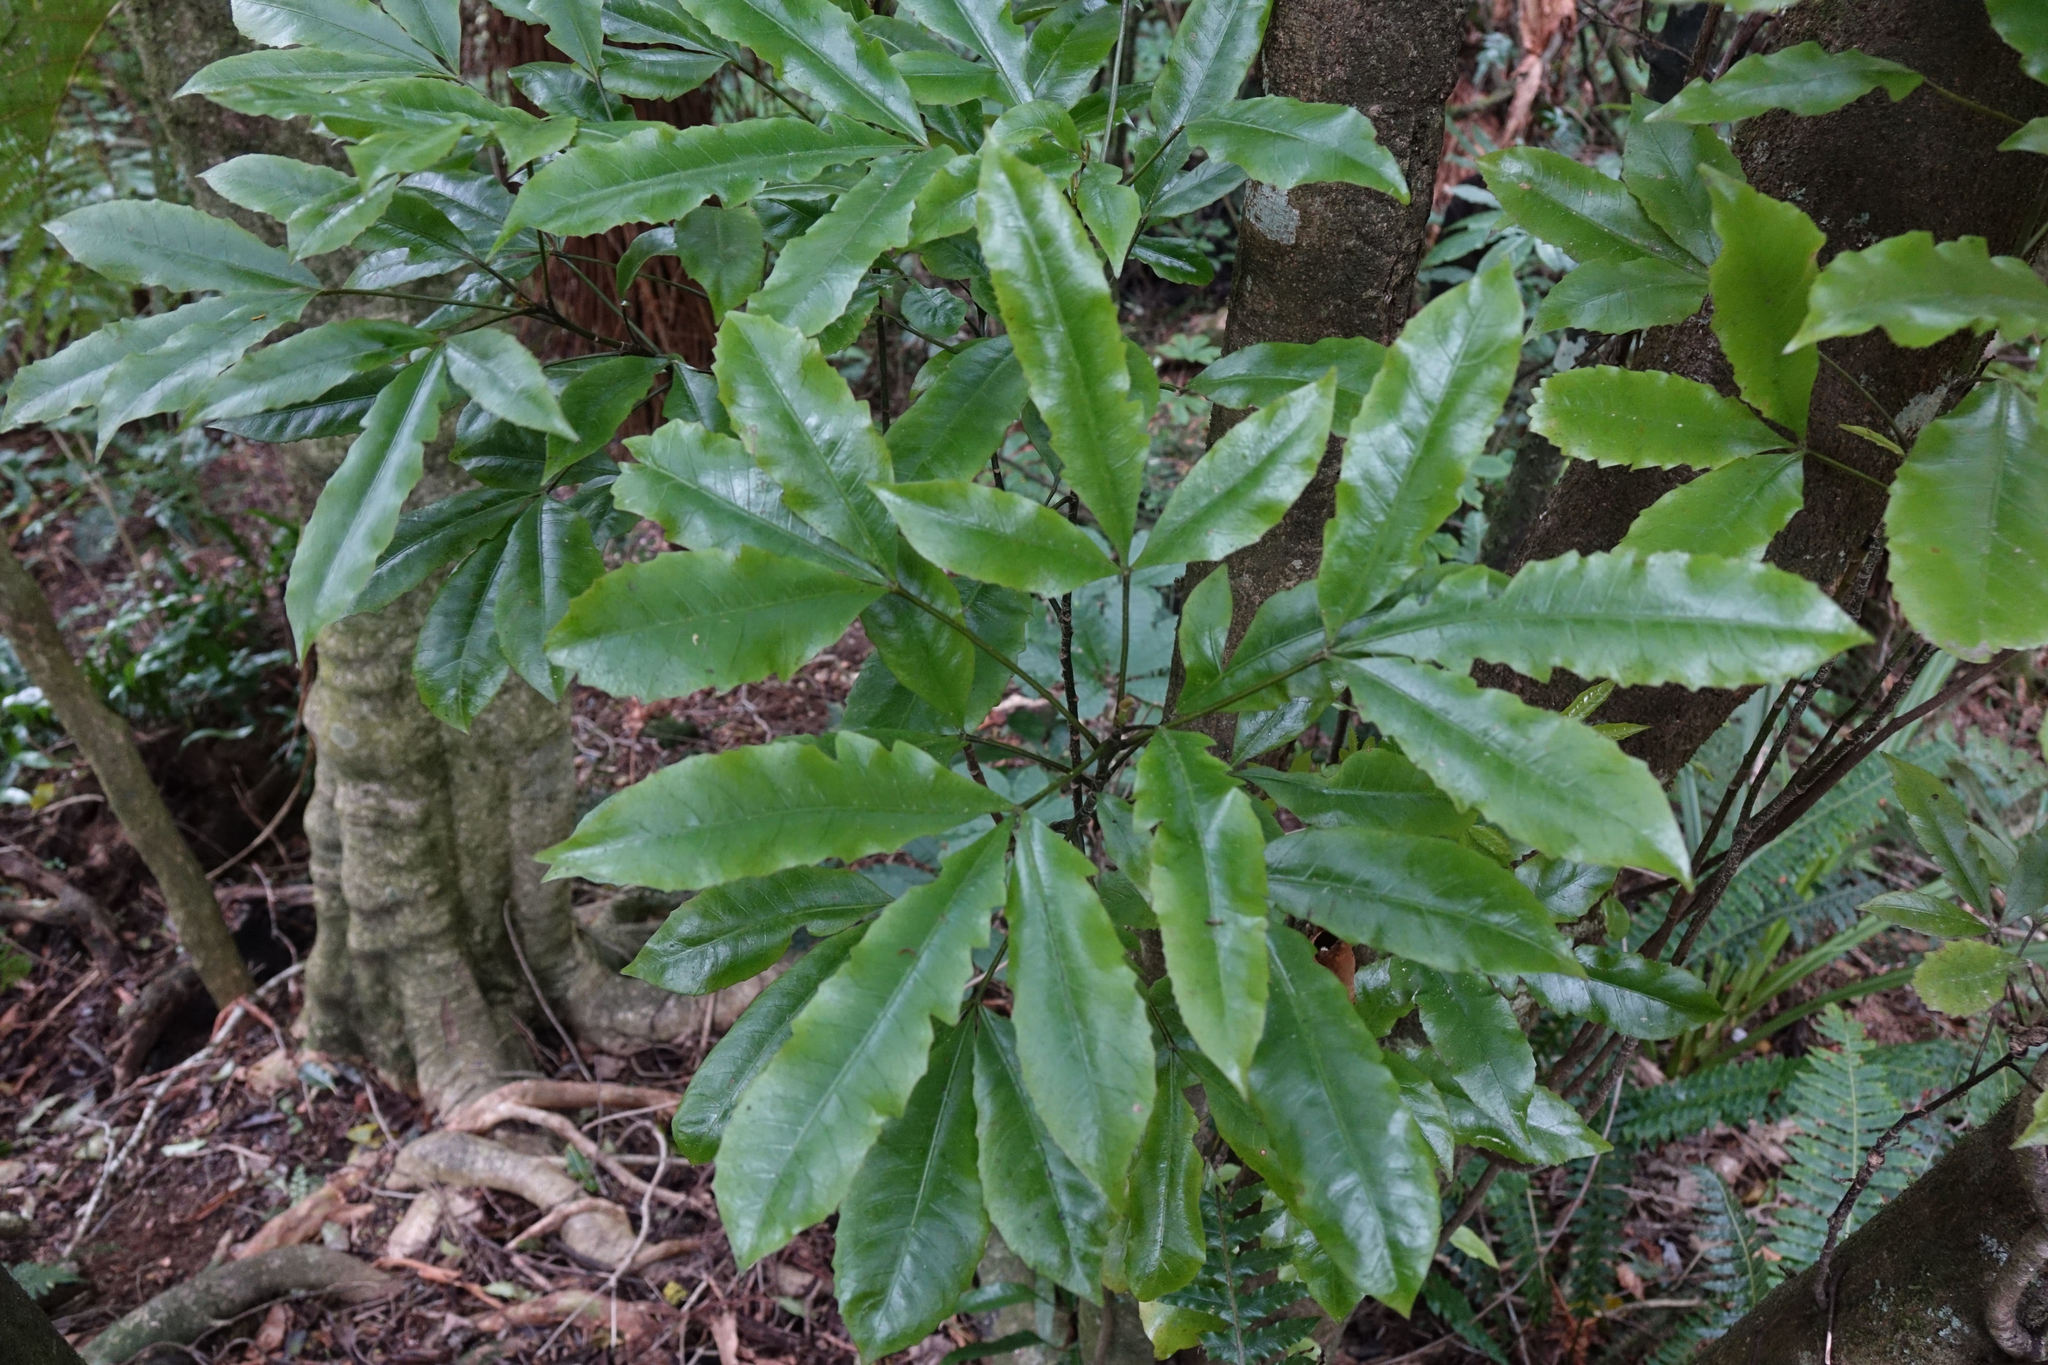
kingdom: Plantae
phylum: Tracheophyta
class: Magnoliopsida
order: Apiales
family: Araliaceae
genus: Raukaua
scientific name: Raukaua edgerleyi
